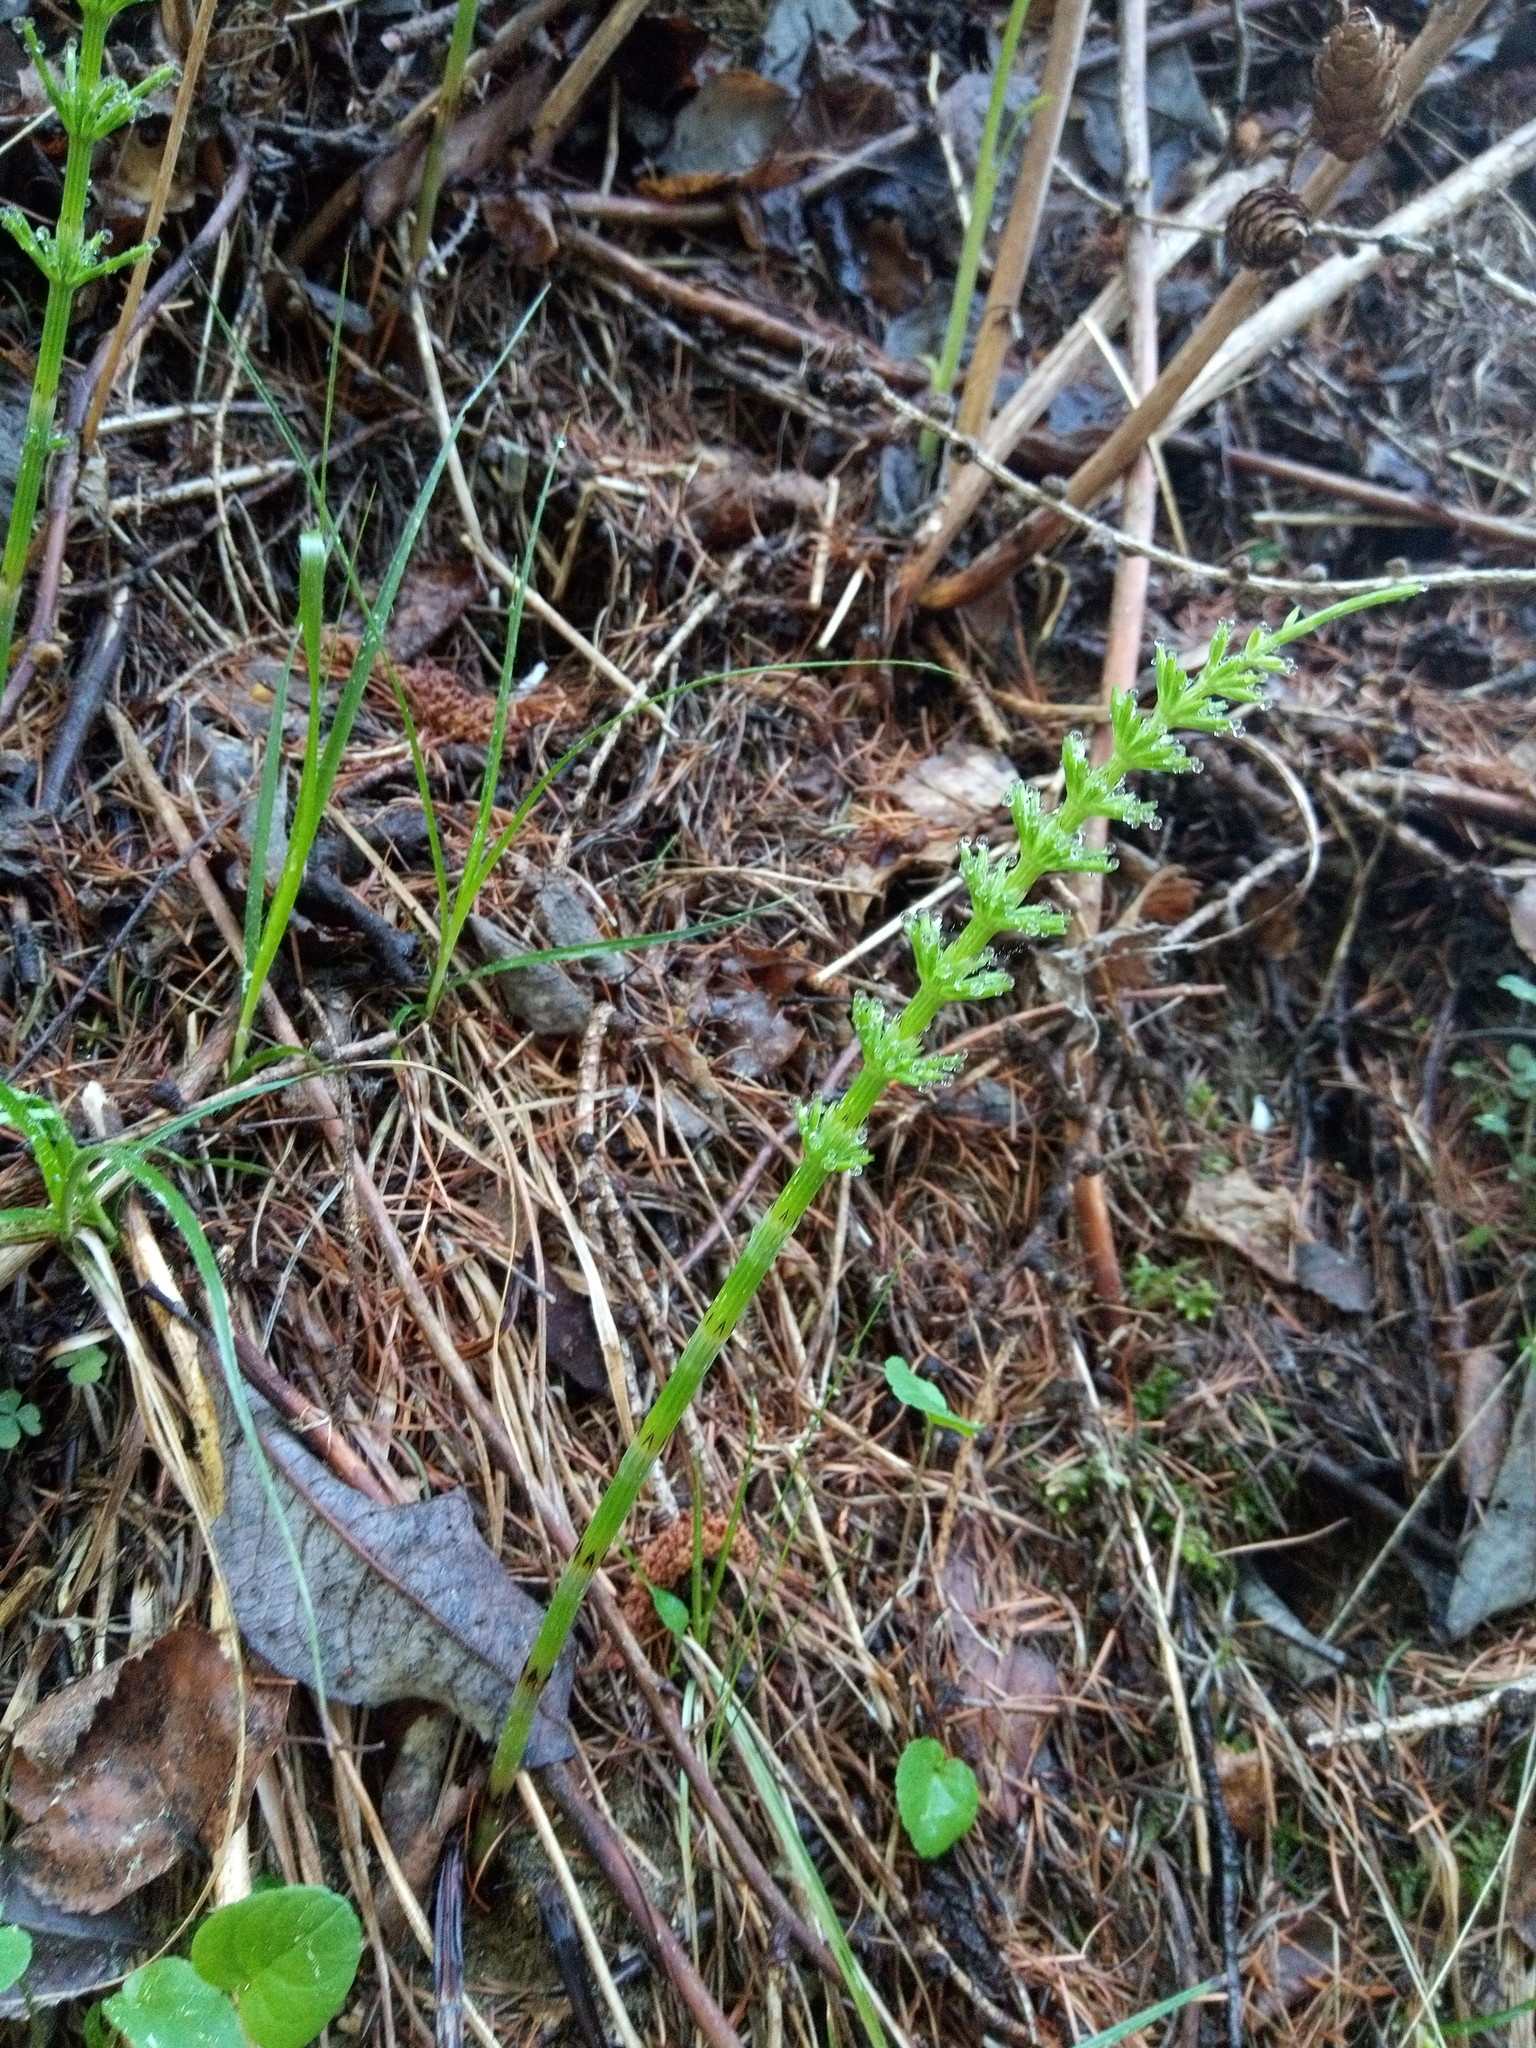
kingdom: Plantae
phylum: Tracheophyta
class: Polypodiopsida
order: Equisetales
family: Equisetaceae
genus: Equisetum
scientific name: Equisetum arvense
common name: Field horsetail
